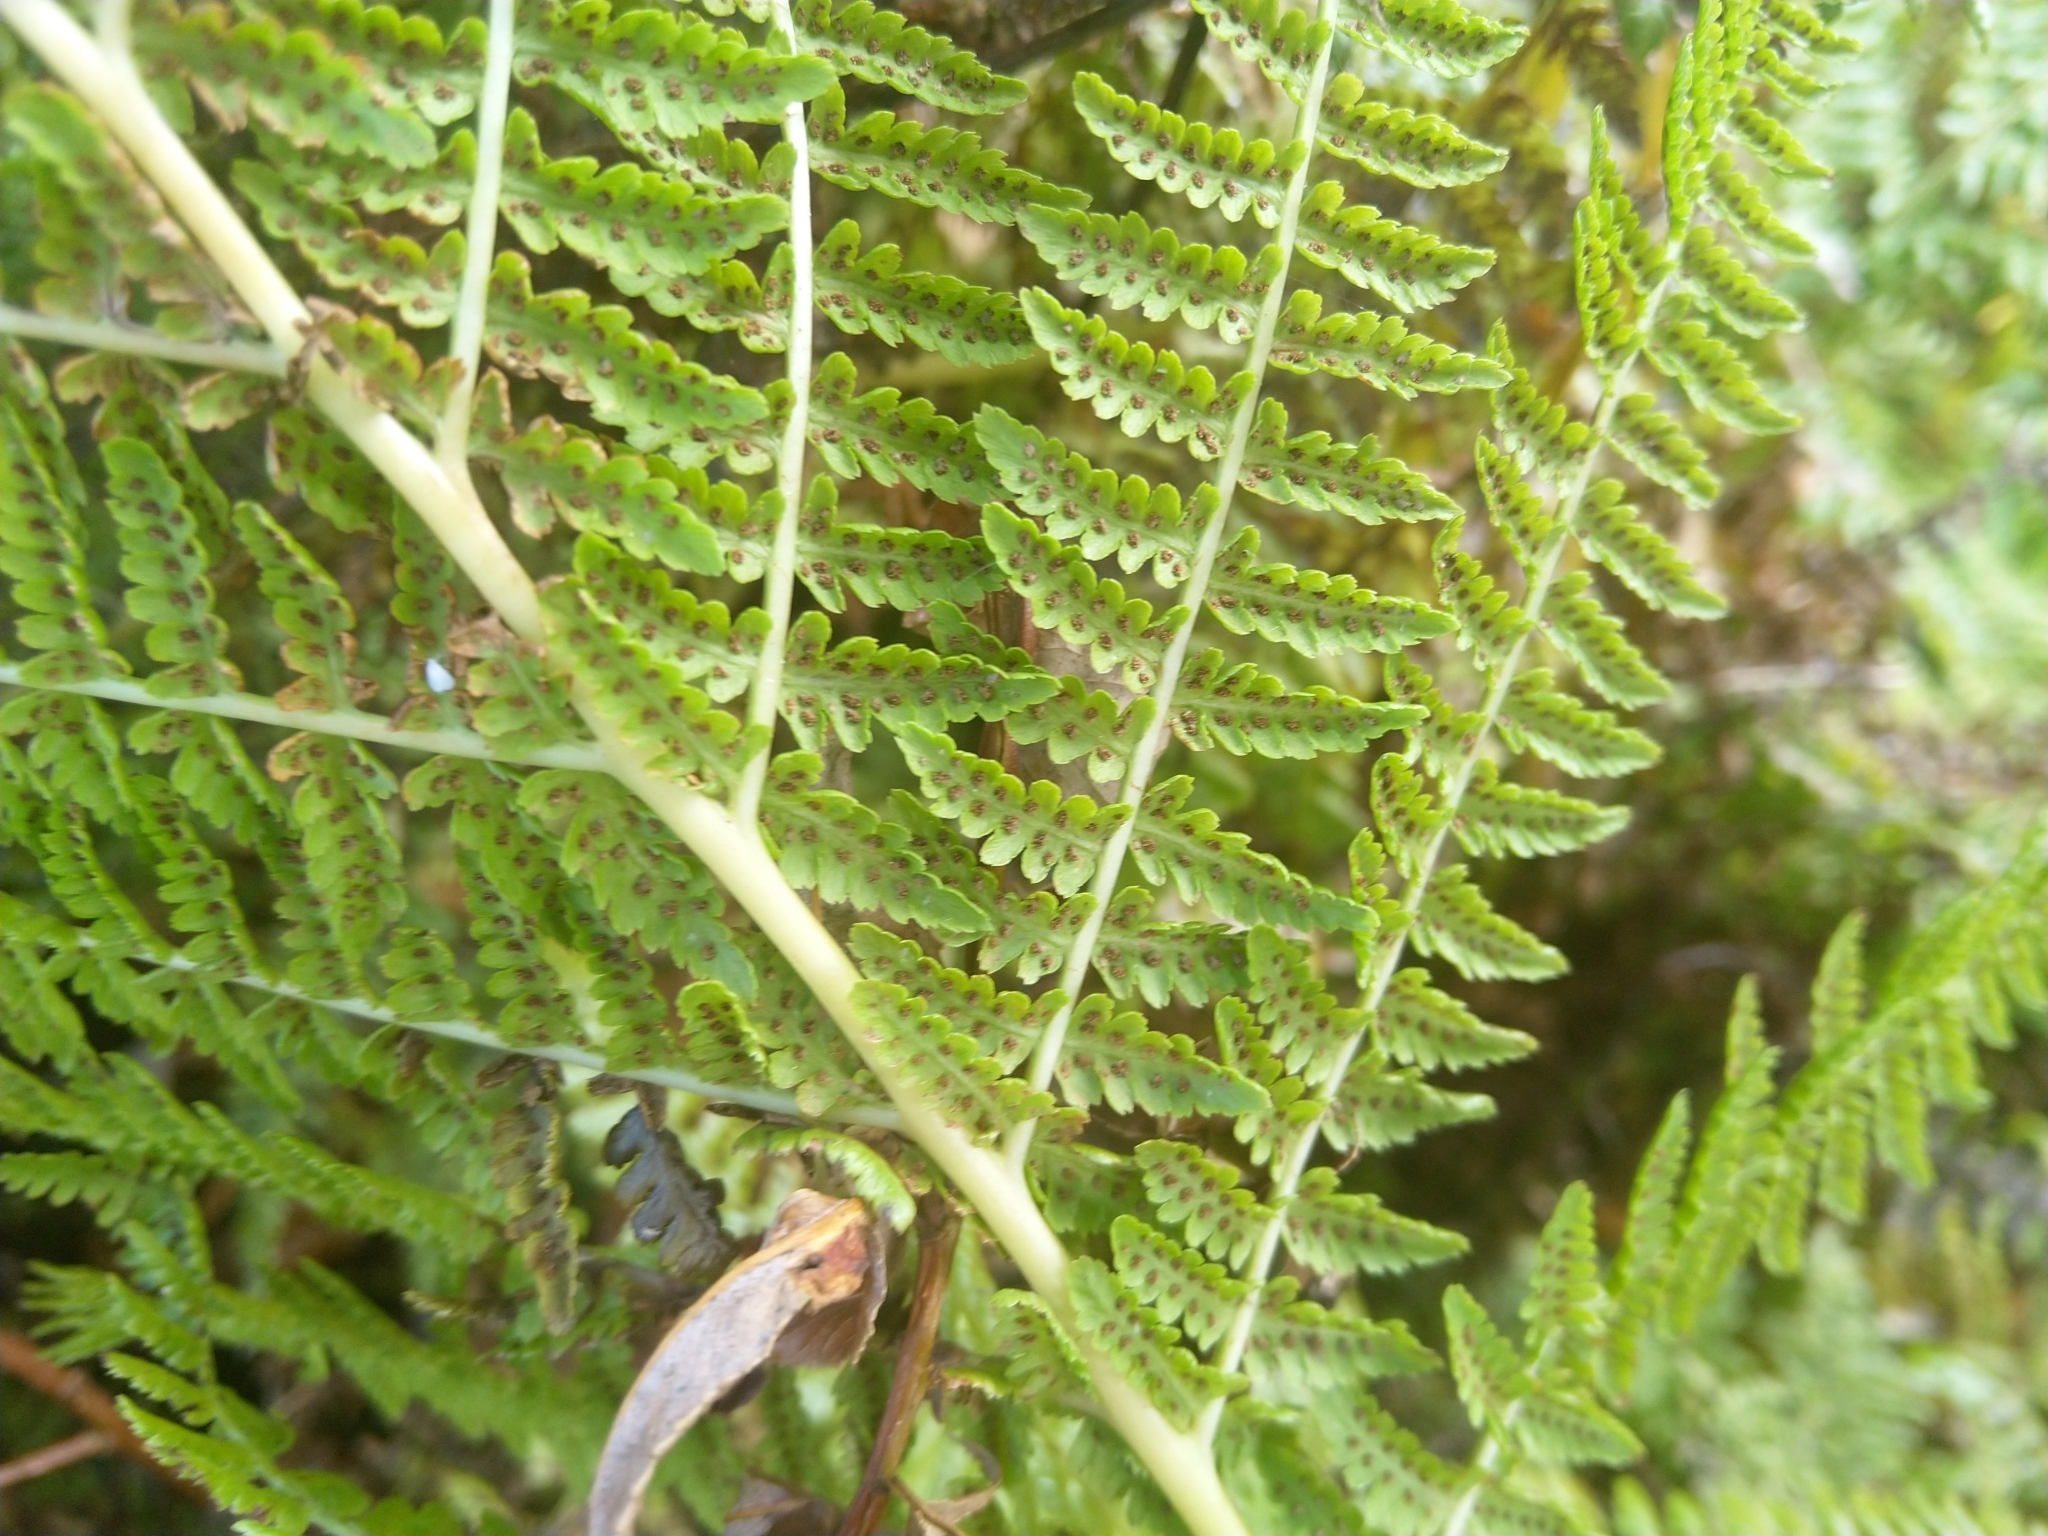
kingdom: Plantae
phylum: Tracheophyta
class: Polypodiopsida
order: Polypodiales
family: Dennstaedtiaceae
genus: Hypolepis
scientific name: Hypolepis ambigua
